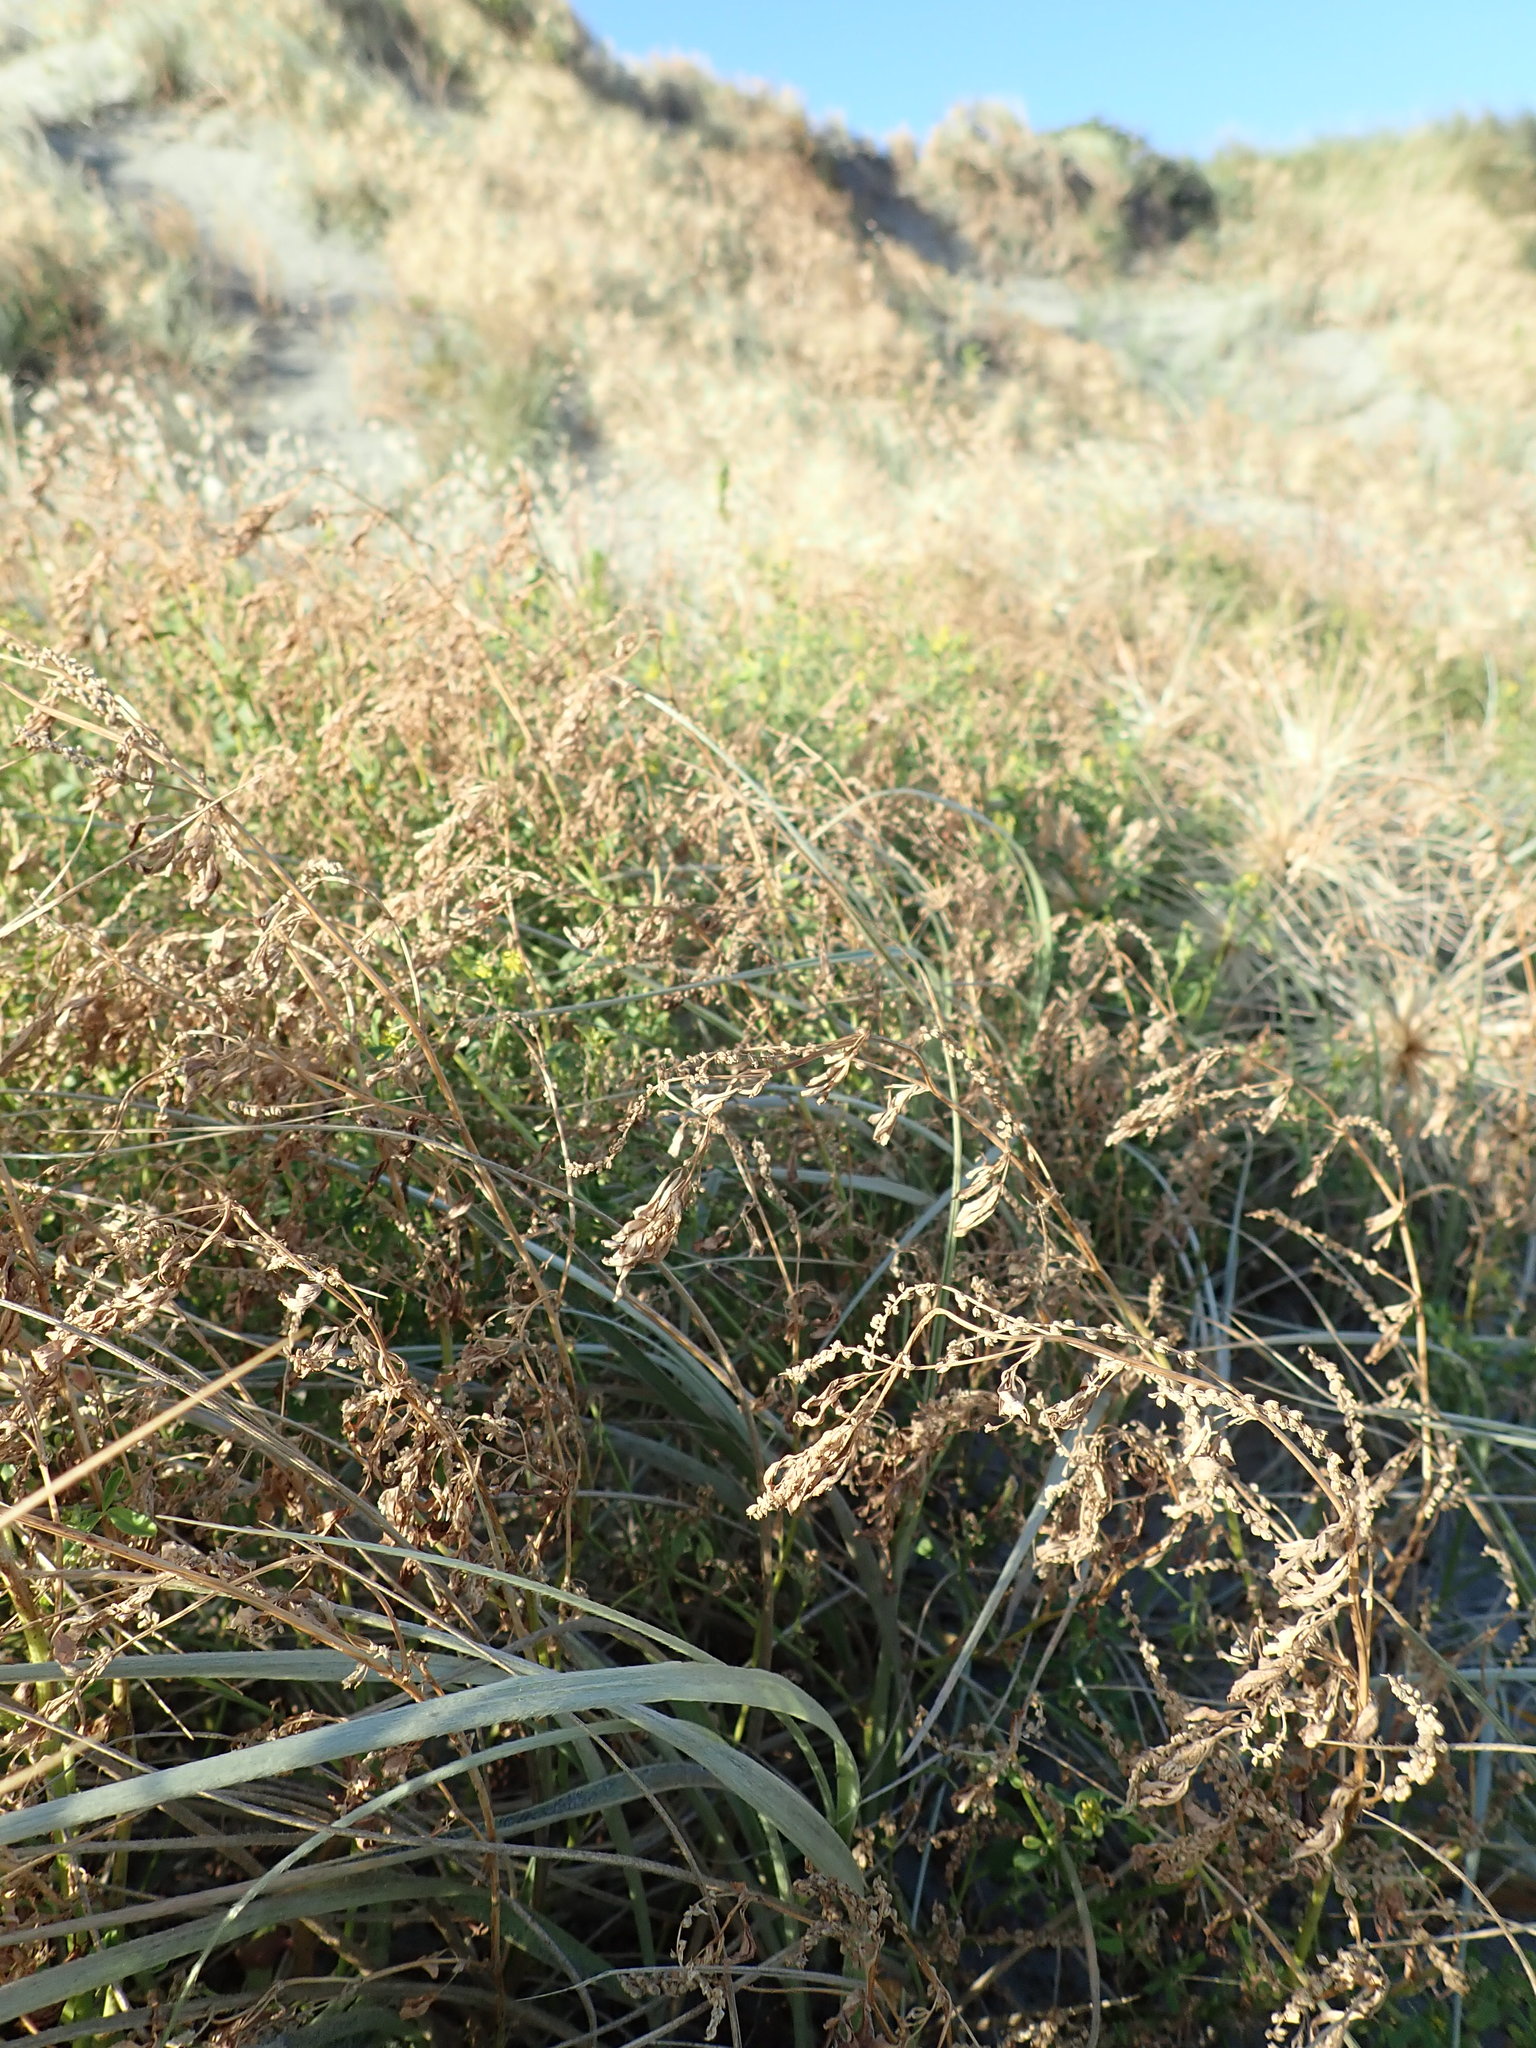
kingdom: Plantae
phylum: Tracheophyta
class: Magnoliopsida
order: Fabales
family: Fabaceae
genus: Melilotus
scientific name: Melilotus indicus
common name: Small melilot
